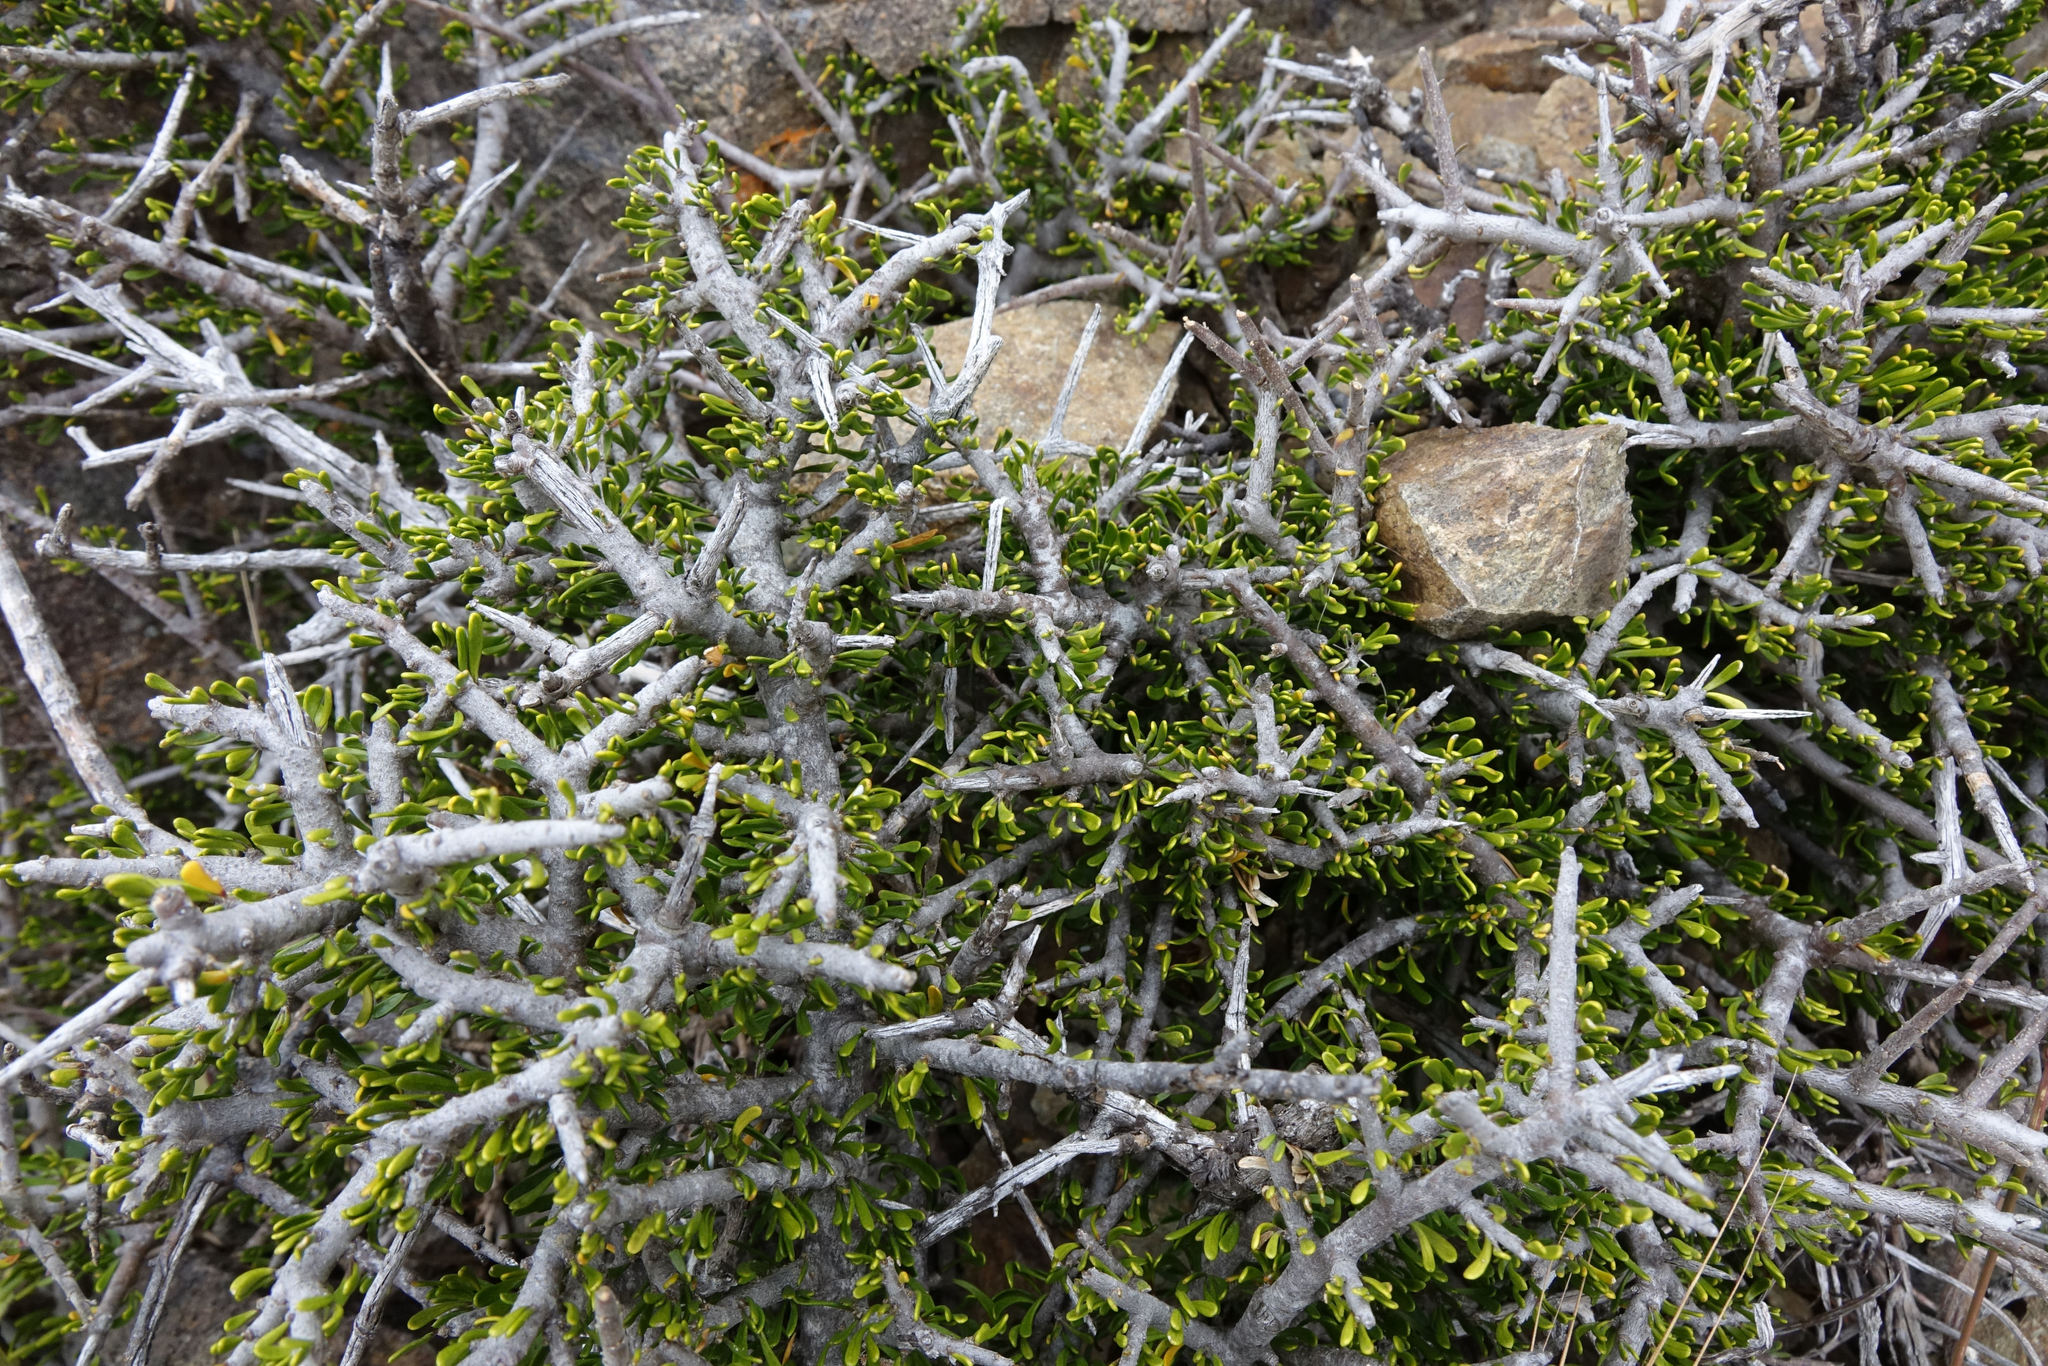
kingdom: Plantae
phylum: Tracheophyta
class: Magnoliopsida
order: Malpighiales
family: Violaceae
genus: Melicytus
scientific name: Melicytus alpinus
